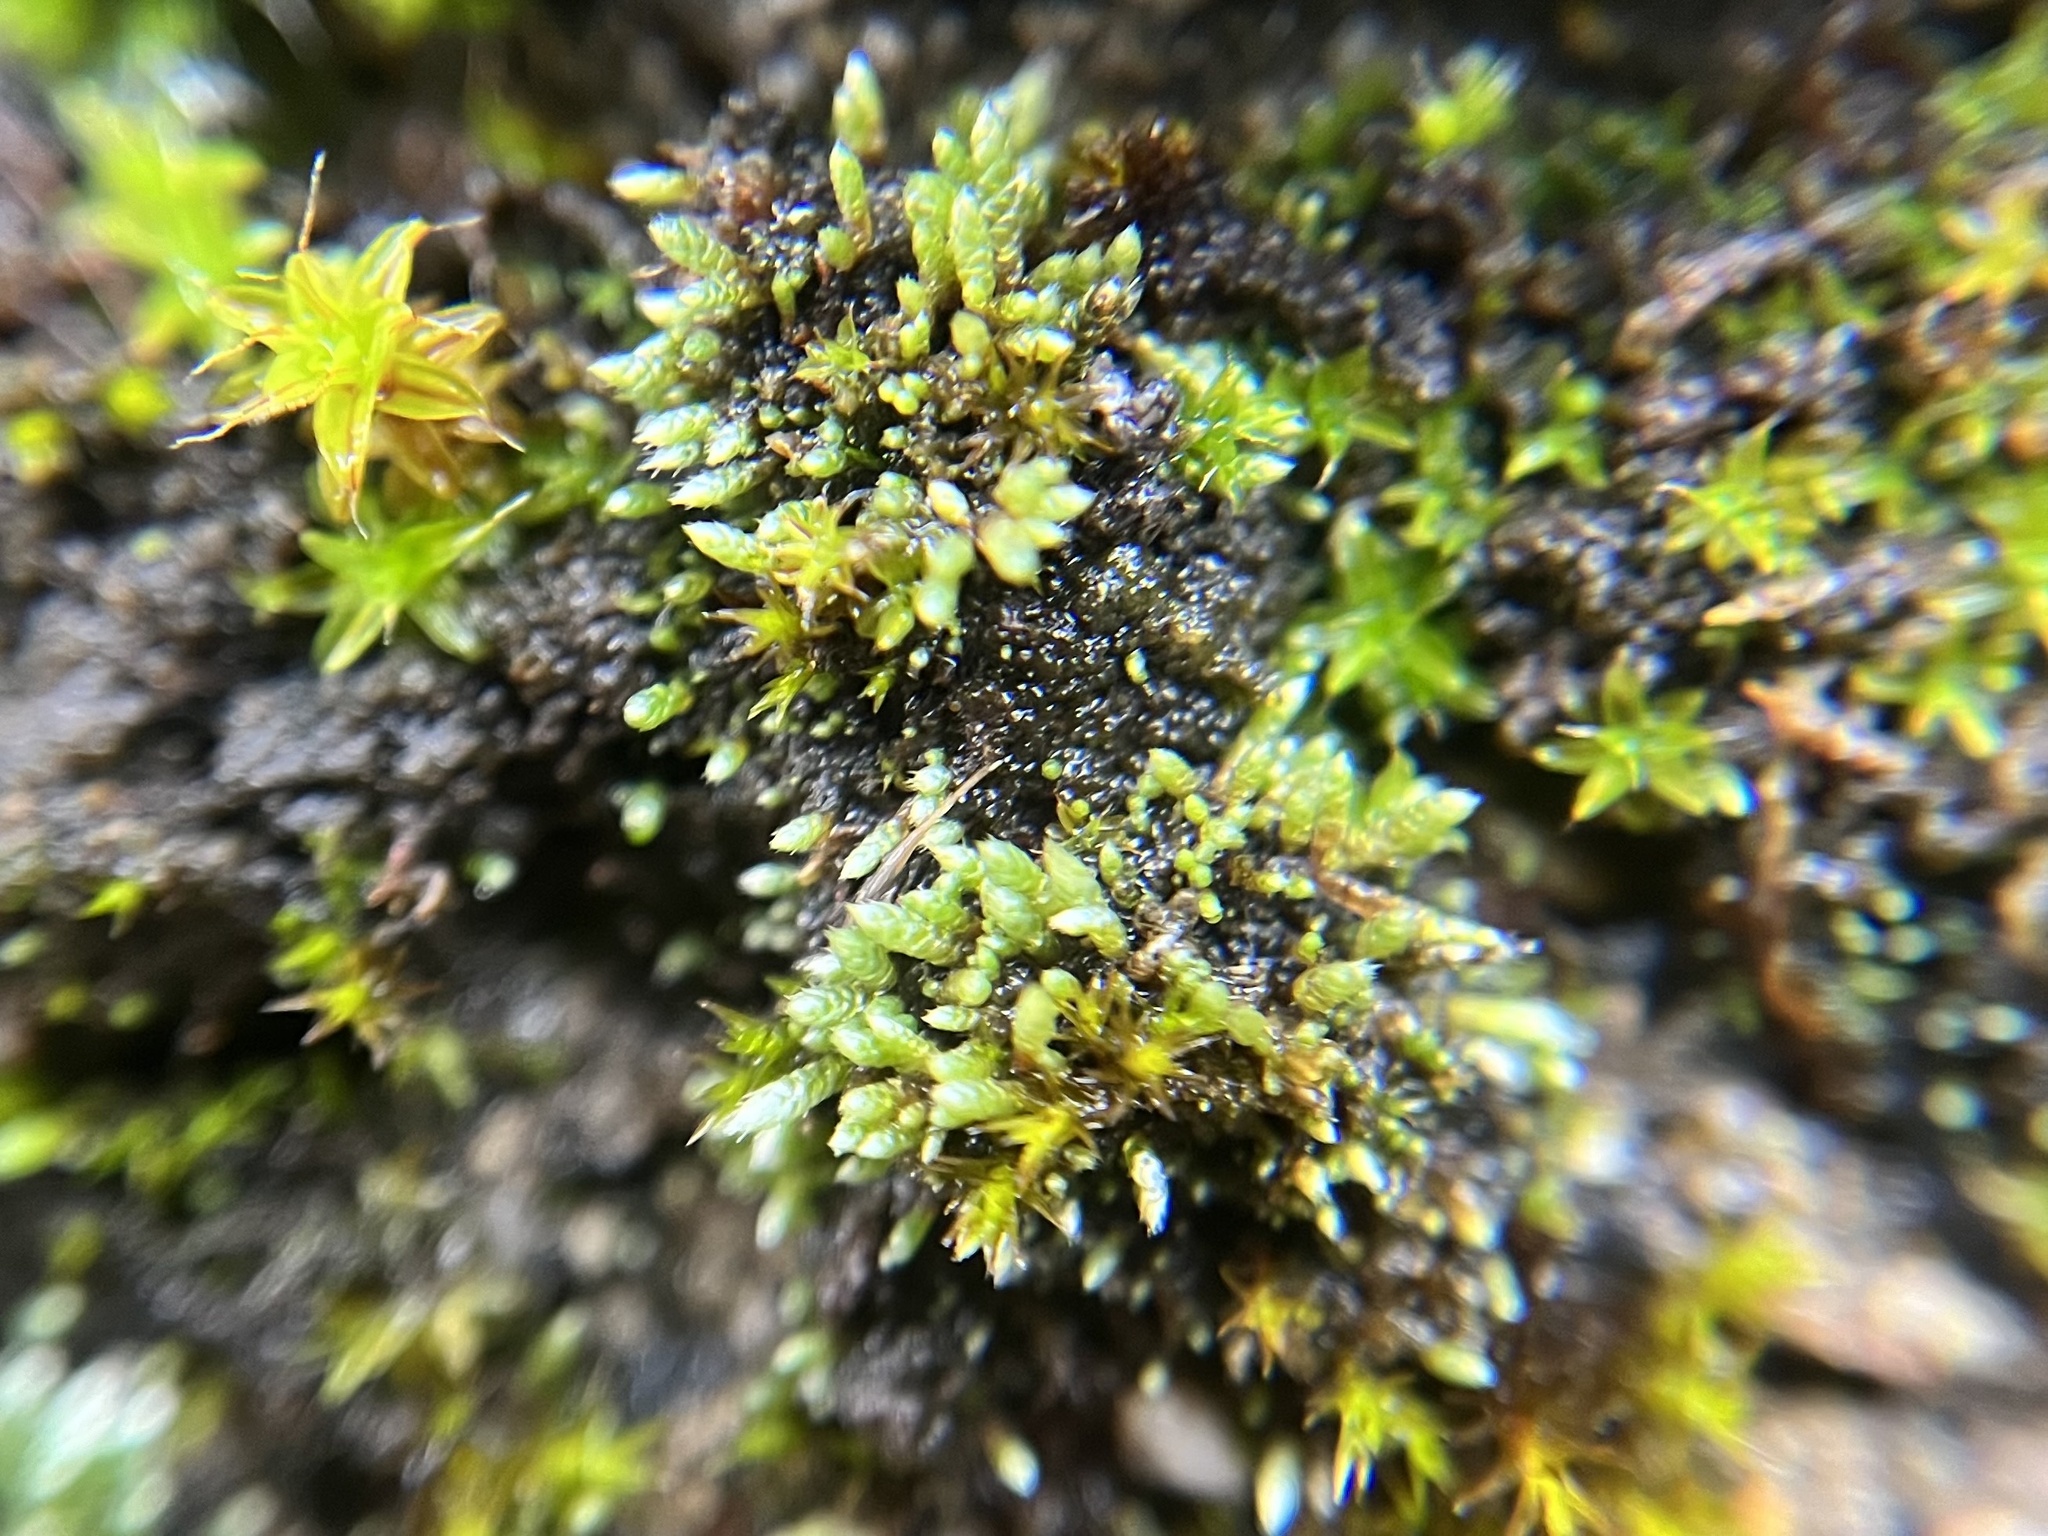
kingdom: Plantae
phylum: Bryophyta
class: Bryopsida
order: Bryales
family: Bryaceae
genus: Bryum
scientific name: Bryum argenteum
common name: Silver-moss
